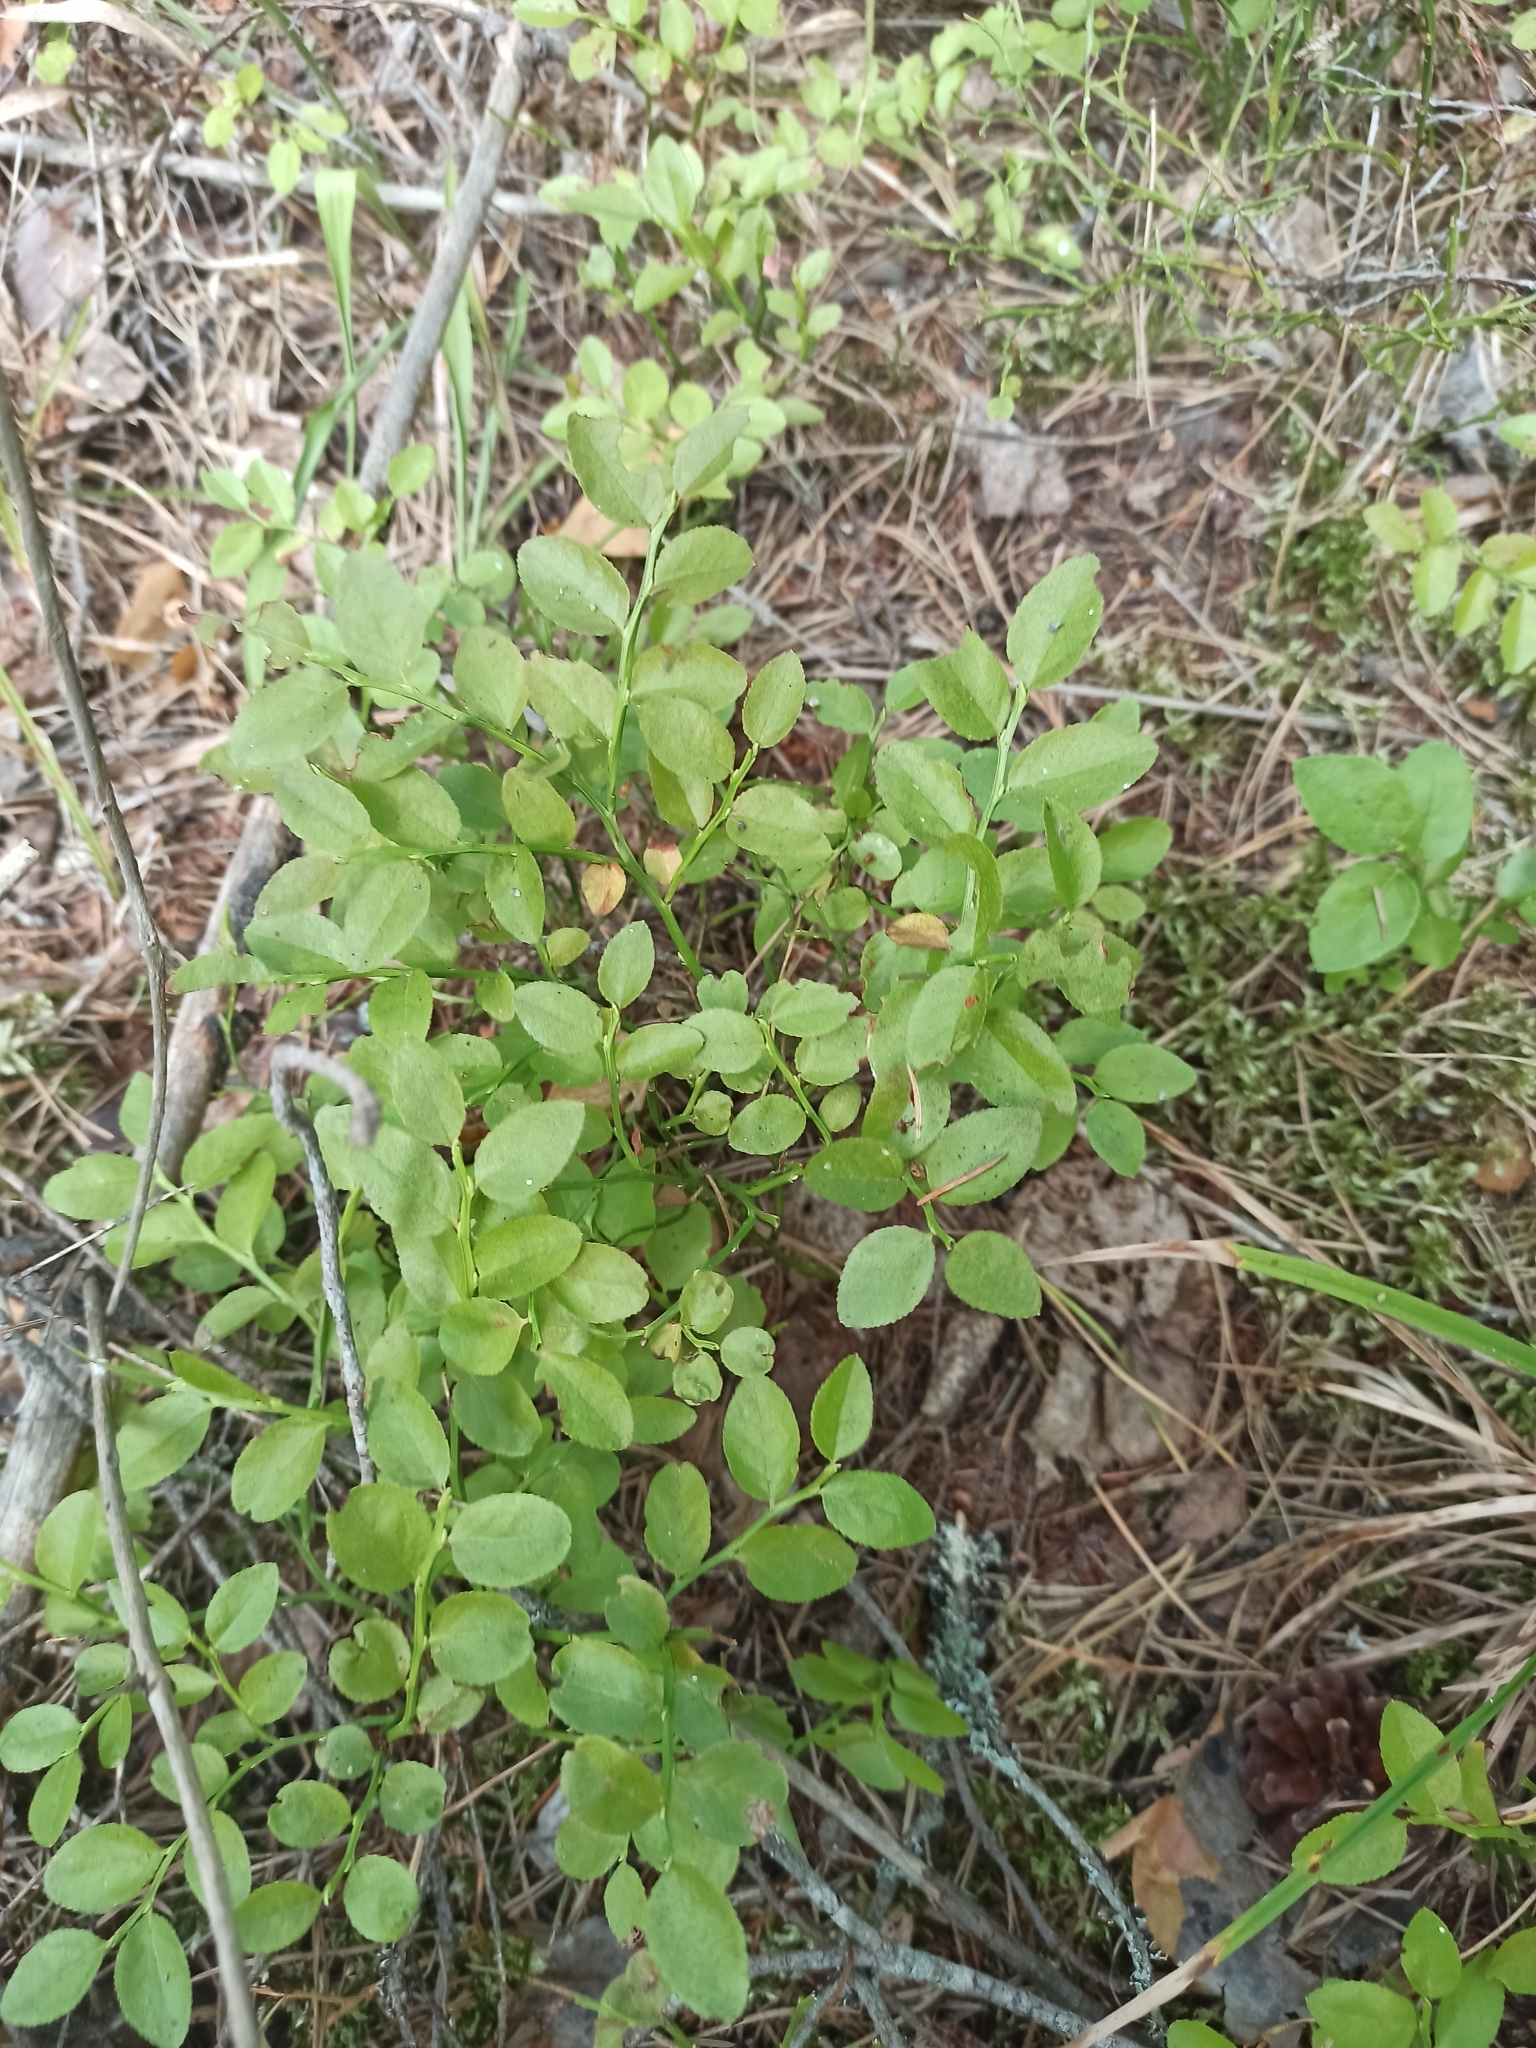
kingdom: Plantae
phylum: Tracheophyta
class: Magnoliopsida
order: Ericales
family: Ericaceae
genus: Vaccinium
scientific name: Vaccinium myrtillus
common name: Bilberry
